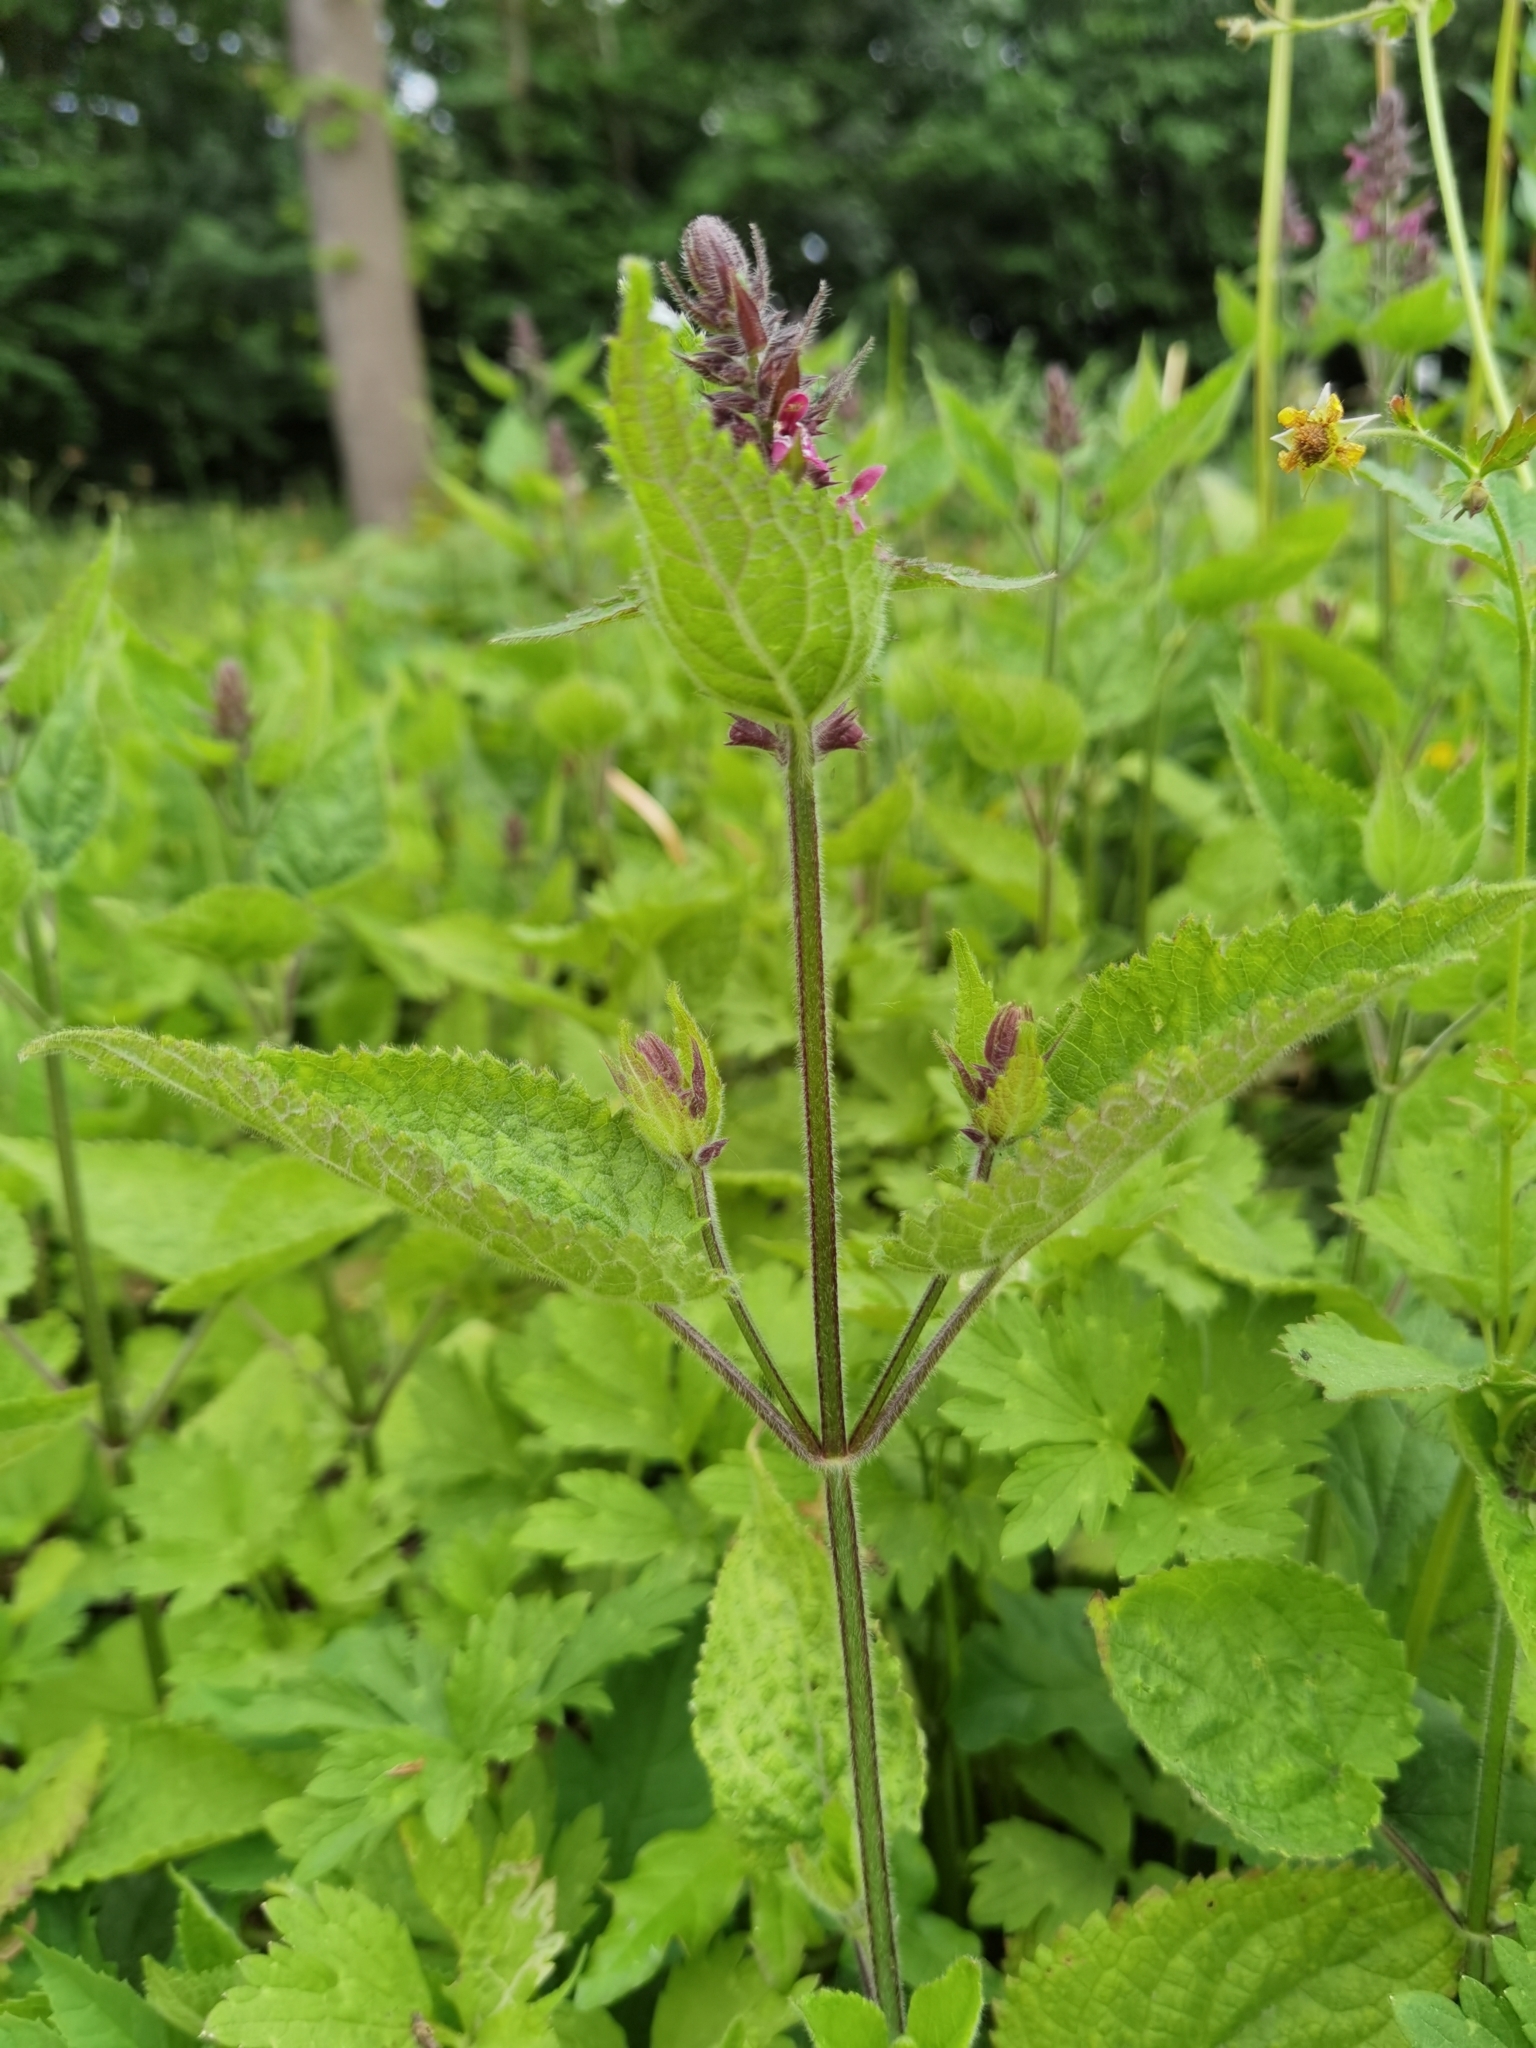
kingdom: Plantae
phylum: Tracheophyta
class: Magnoliopsida
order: Lamiales
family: Lamiaceae
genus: Stachys
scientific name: Stachys sylvatica
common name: Hedge woundwort
